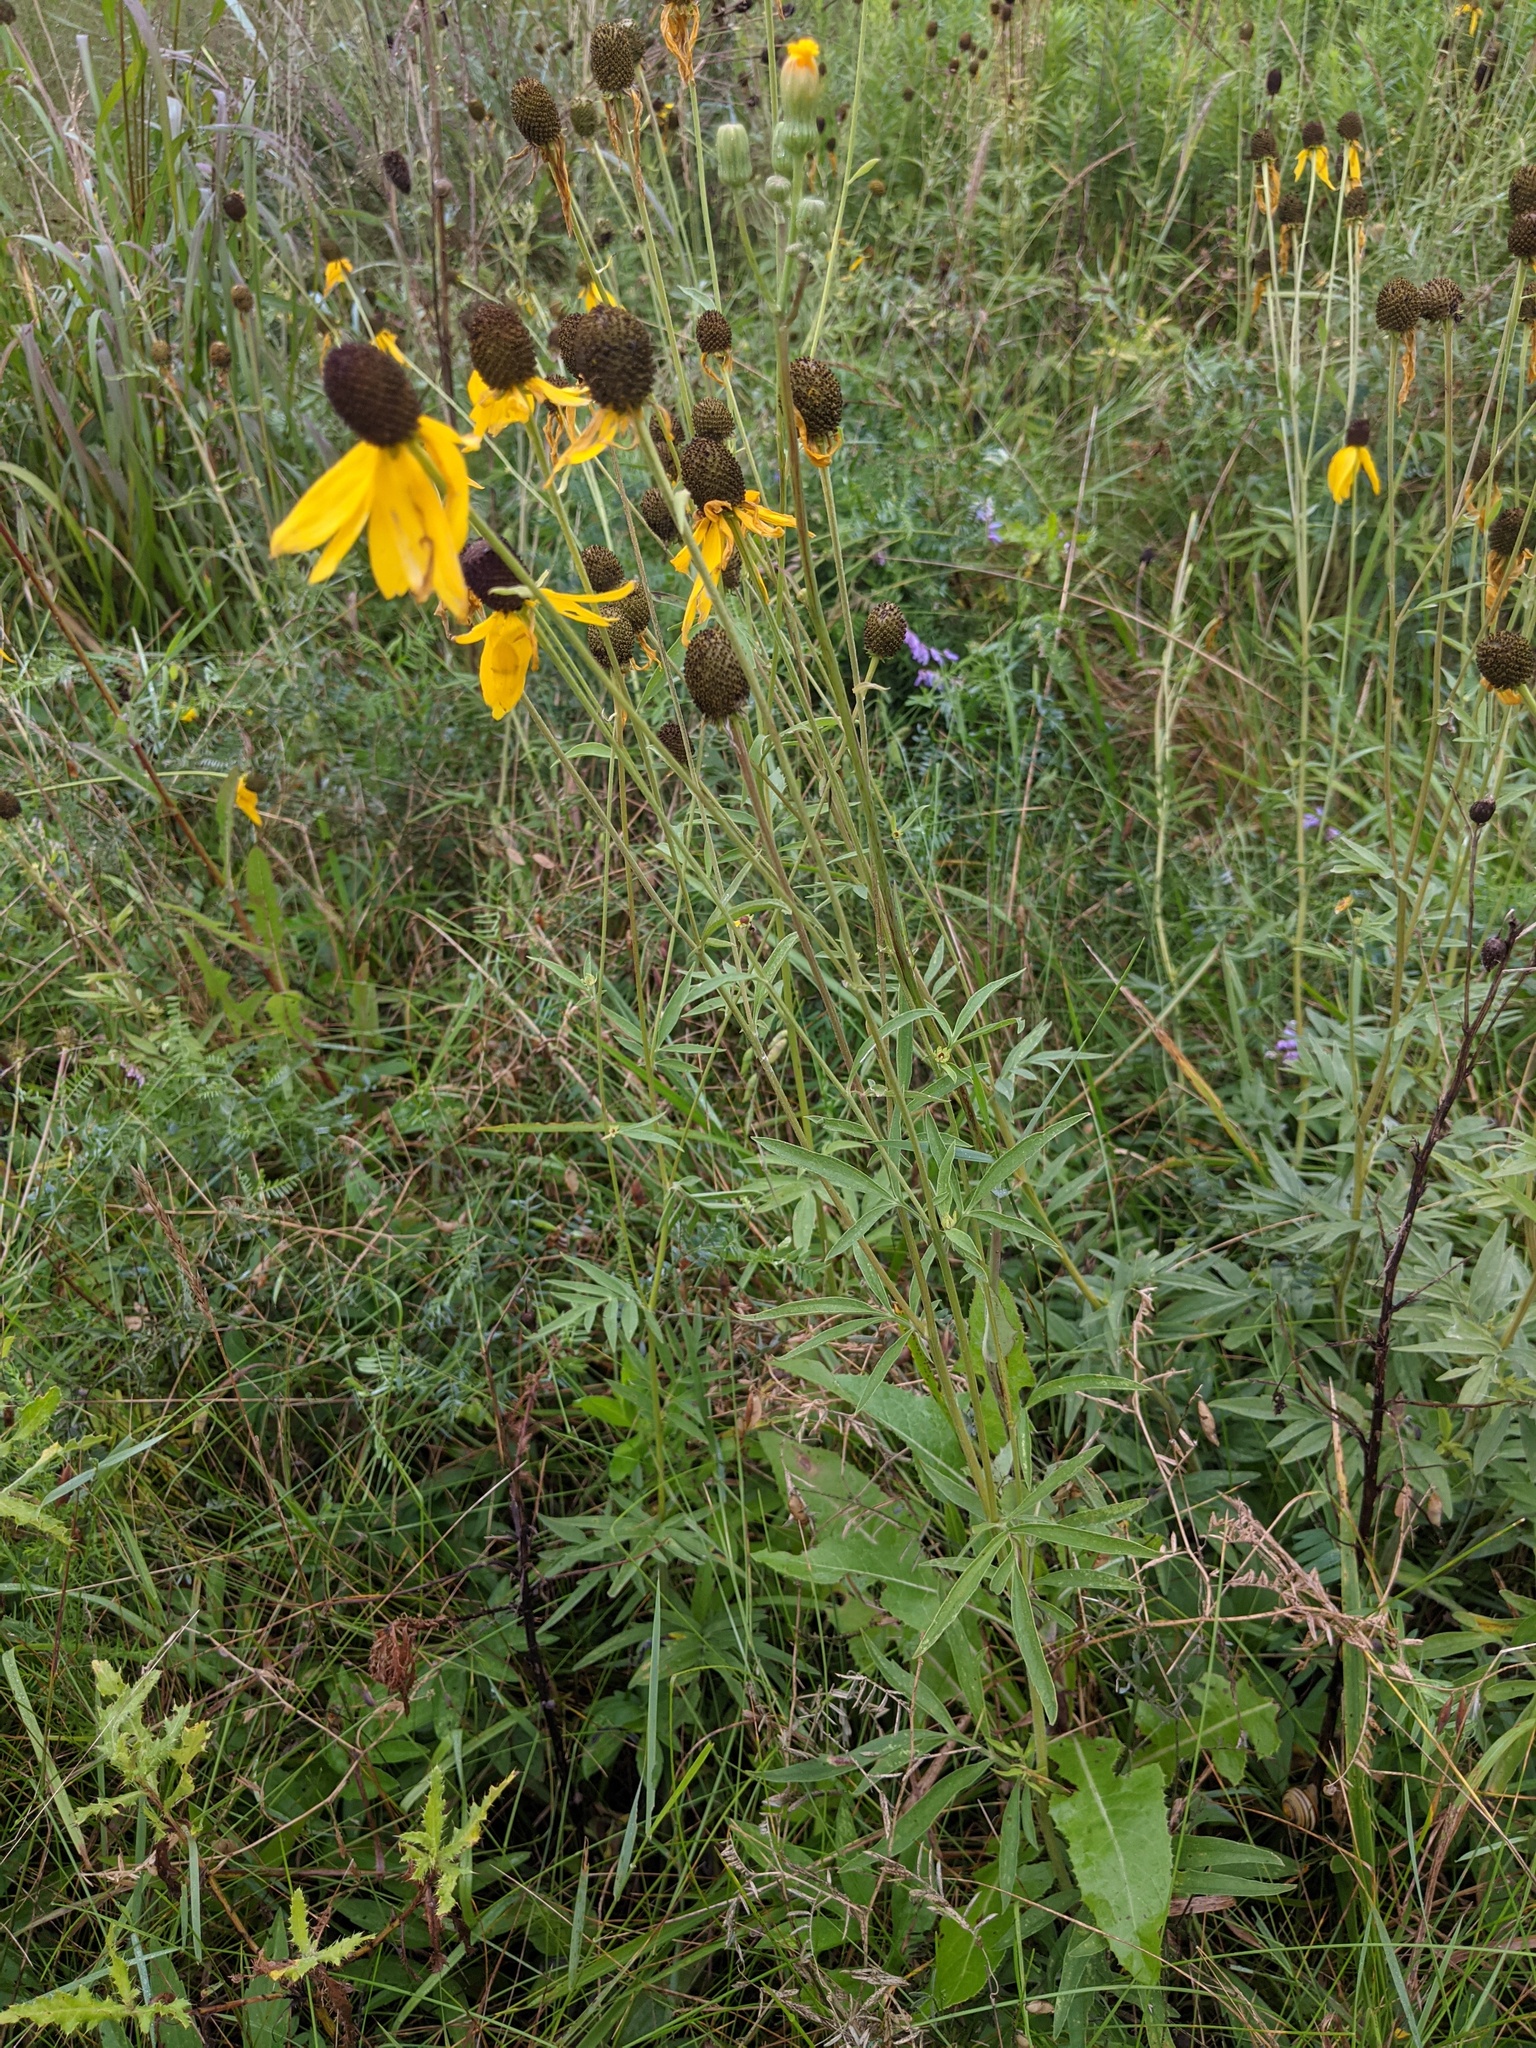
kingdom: Plantae
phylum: Tracheophyta
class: Magnoliopsida
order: Asterales
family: Asteraceae
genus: Ratibida
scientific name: Ratibida pinnata
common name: Drooping prairie-coneflower
